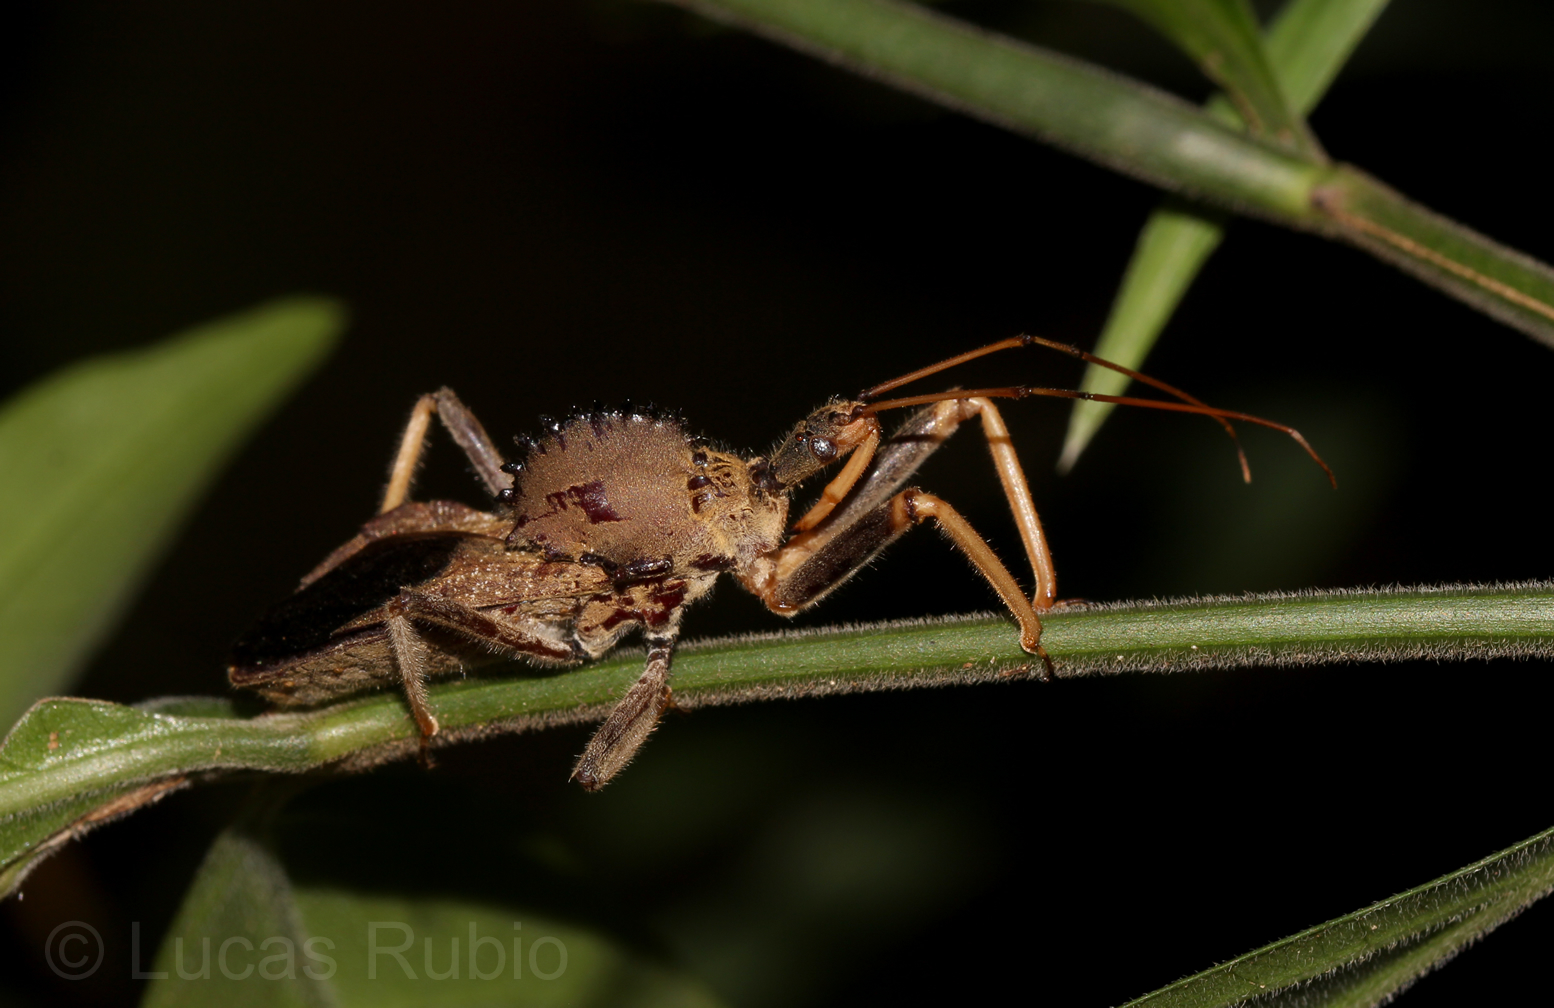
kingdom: Animalia
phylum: Arthropoda
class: Insecta
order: Hemiptera
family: Reduviidae
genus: Arilus
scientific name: Arilus carinatus
